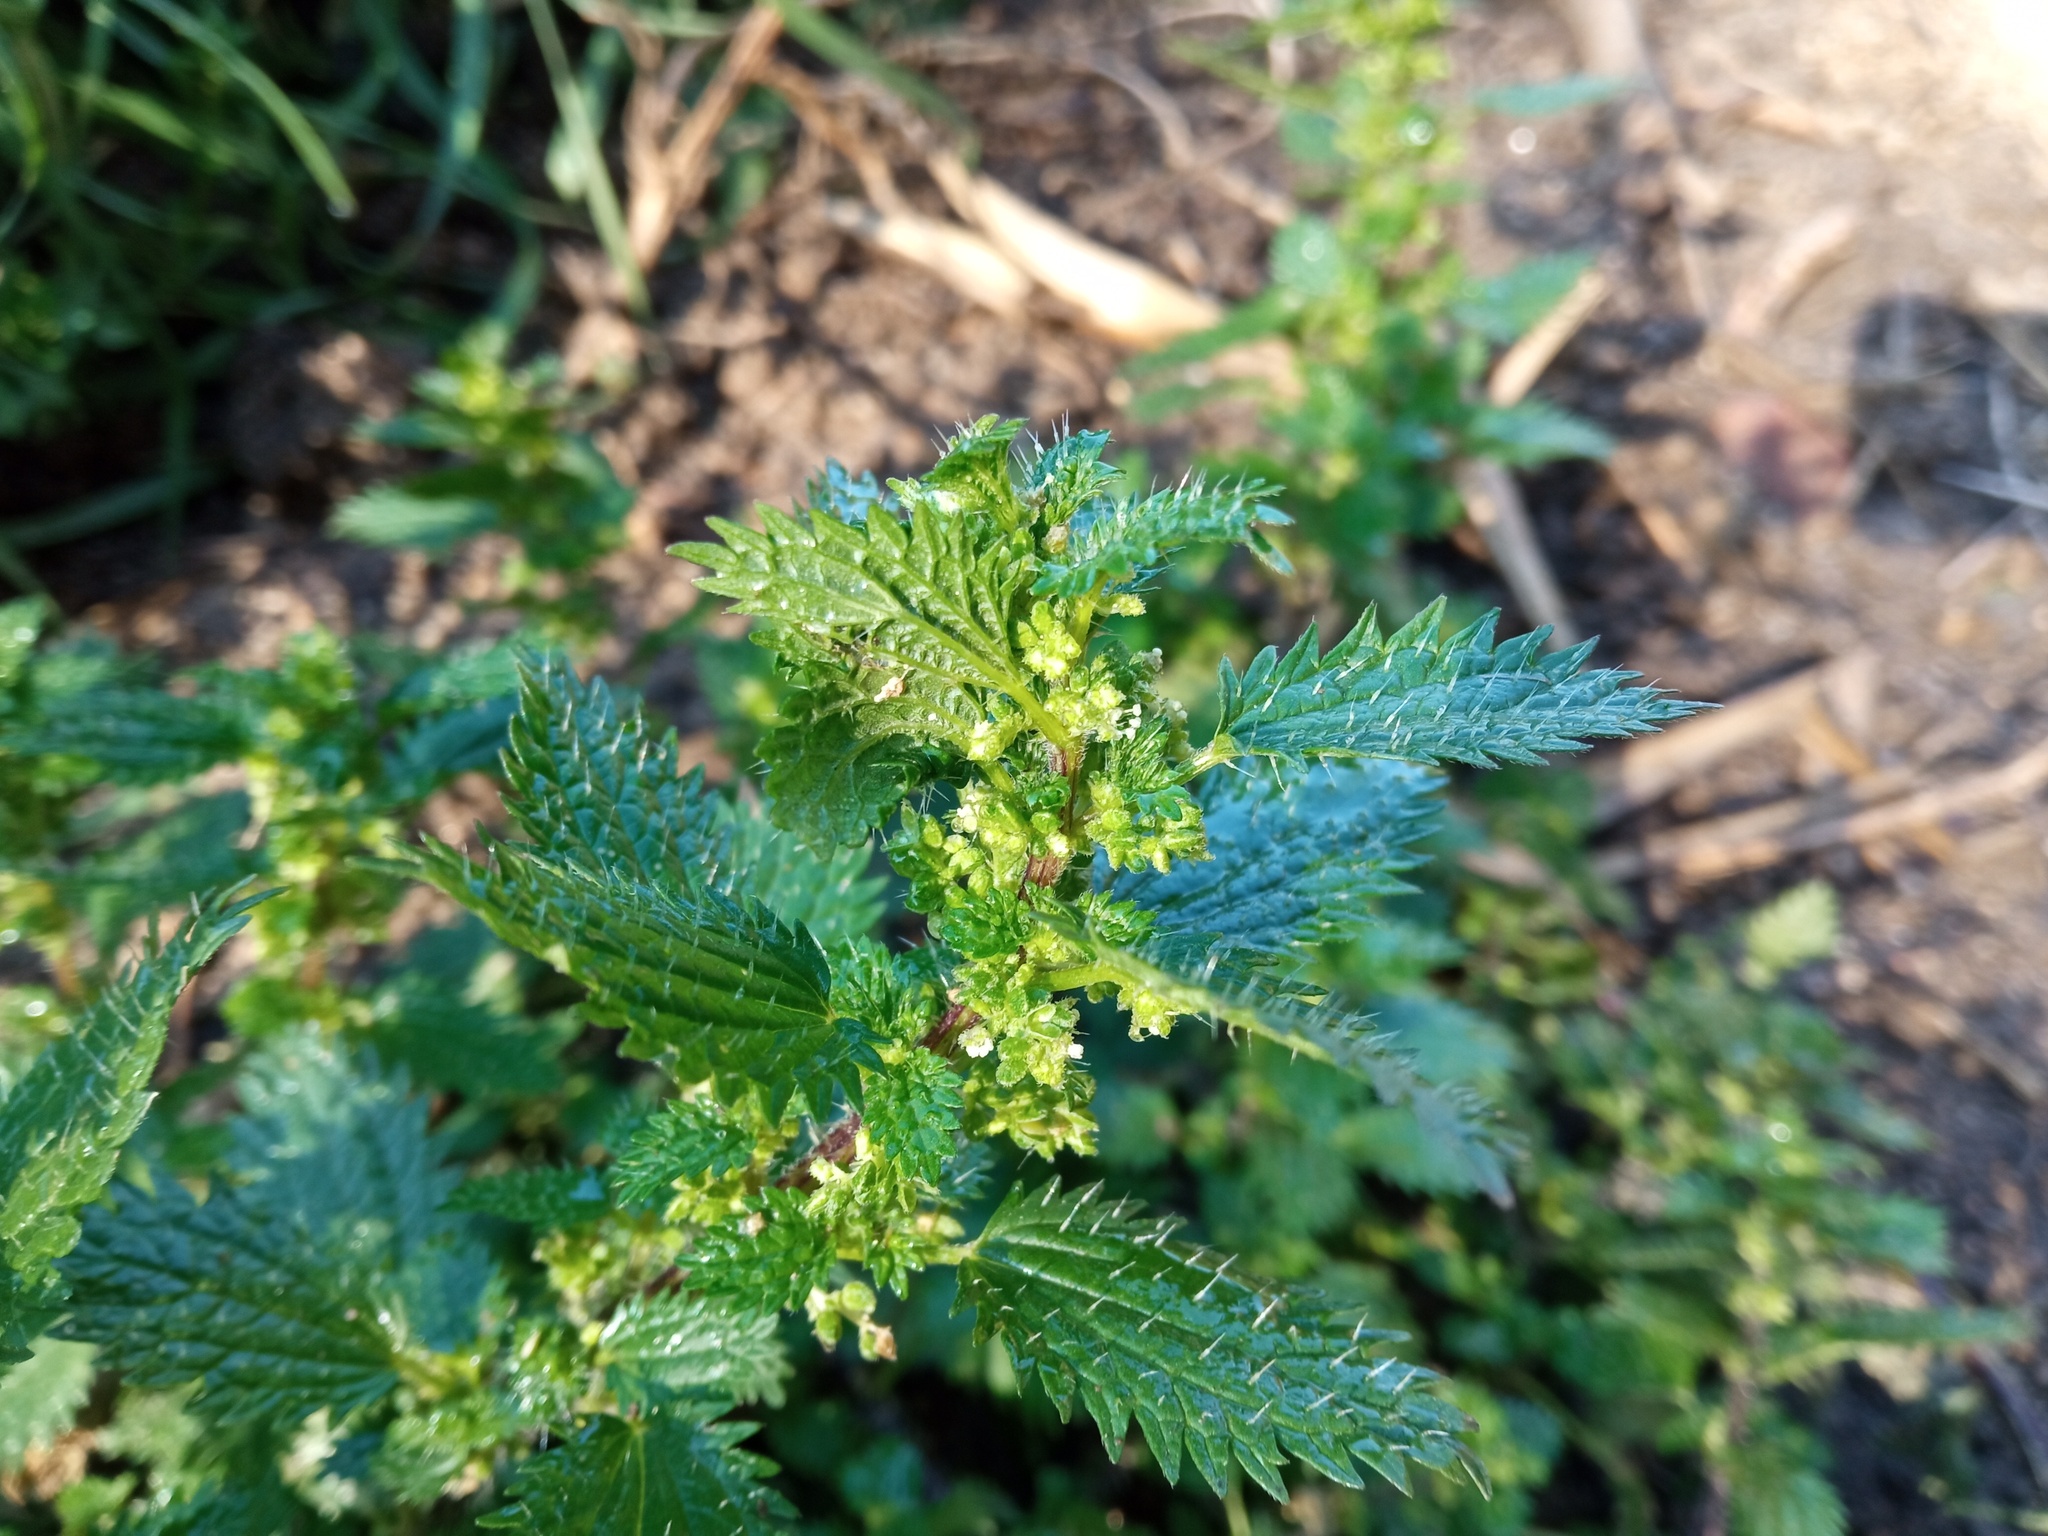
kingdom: Plantae
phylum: Tracheophyta
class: Magnoliopsida
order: Rosales
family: Urticaceae
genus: Urtica
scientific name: Urtica urens
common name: Dwarf nettle
